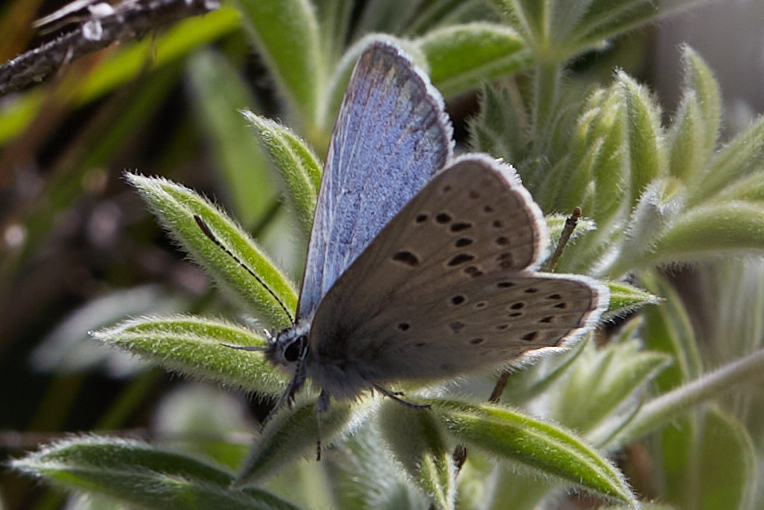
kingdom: Animalia
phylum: Arthropoda
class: Insecta
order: Lepidoptera
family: Lycaenidae
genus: Icaricia
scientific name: Icaricia icarioides
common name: Boisduval's blue
